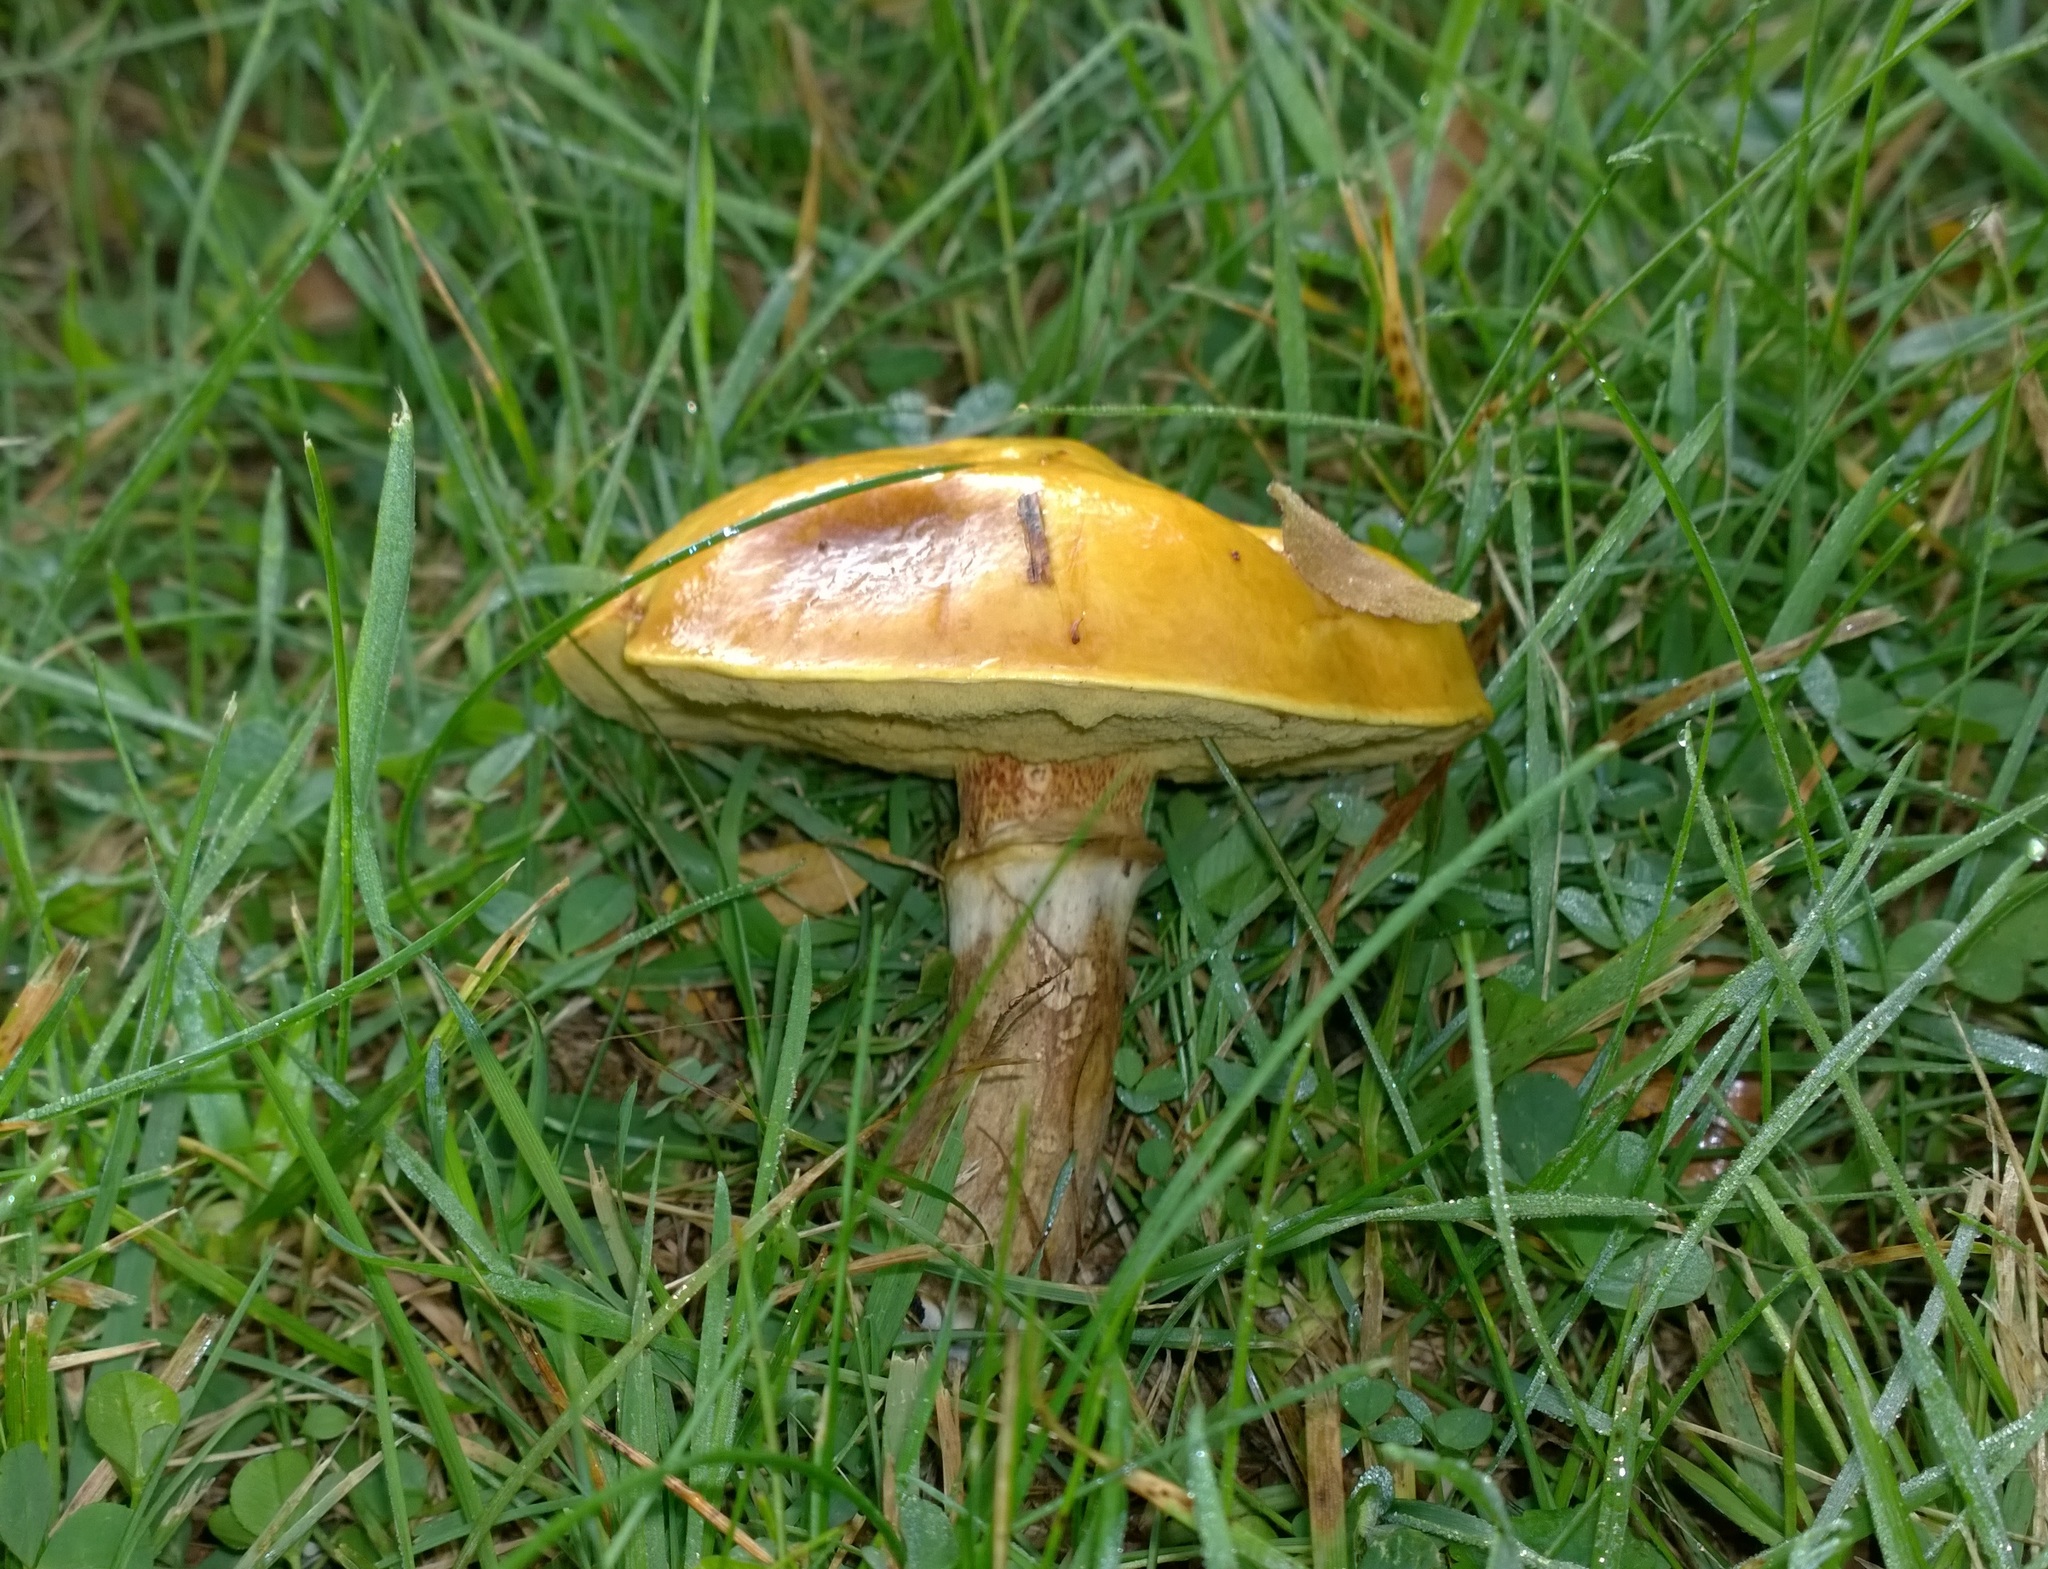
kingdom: Fungi
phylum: Basidiomycota
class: Agaricomycetes
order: Boletales
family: Suillaceae
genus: Suillus
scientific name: Suillus grevillei
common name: Larch bolete
